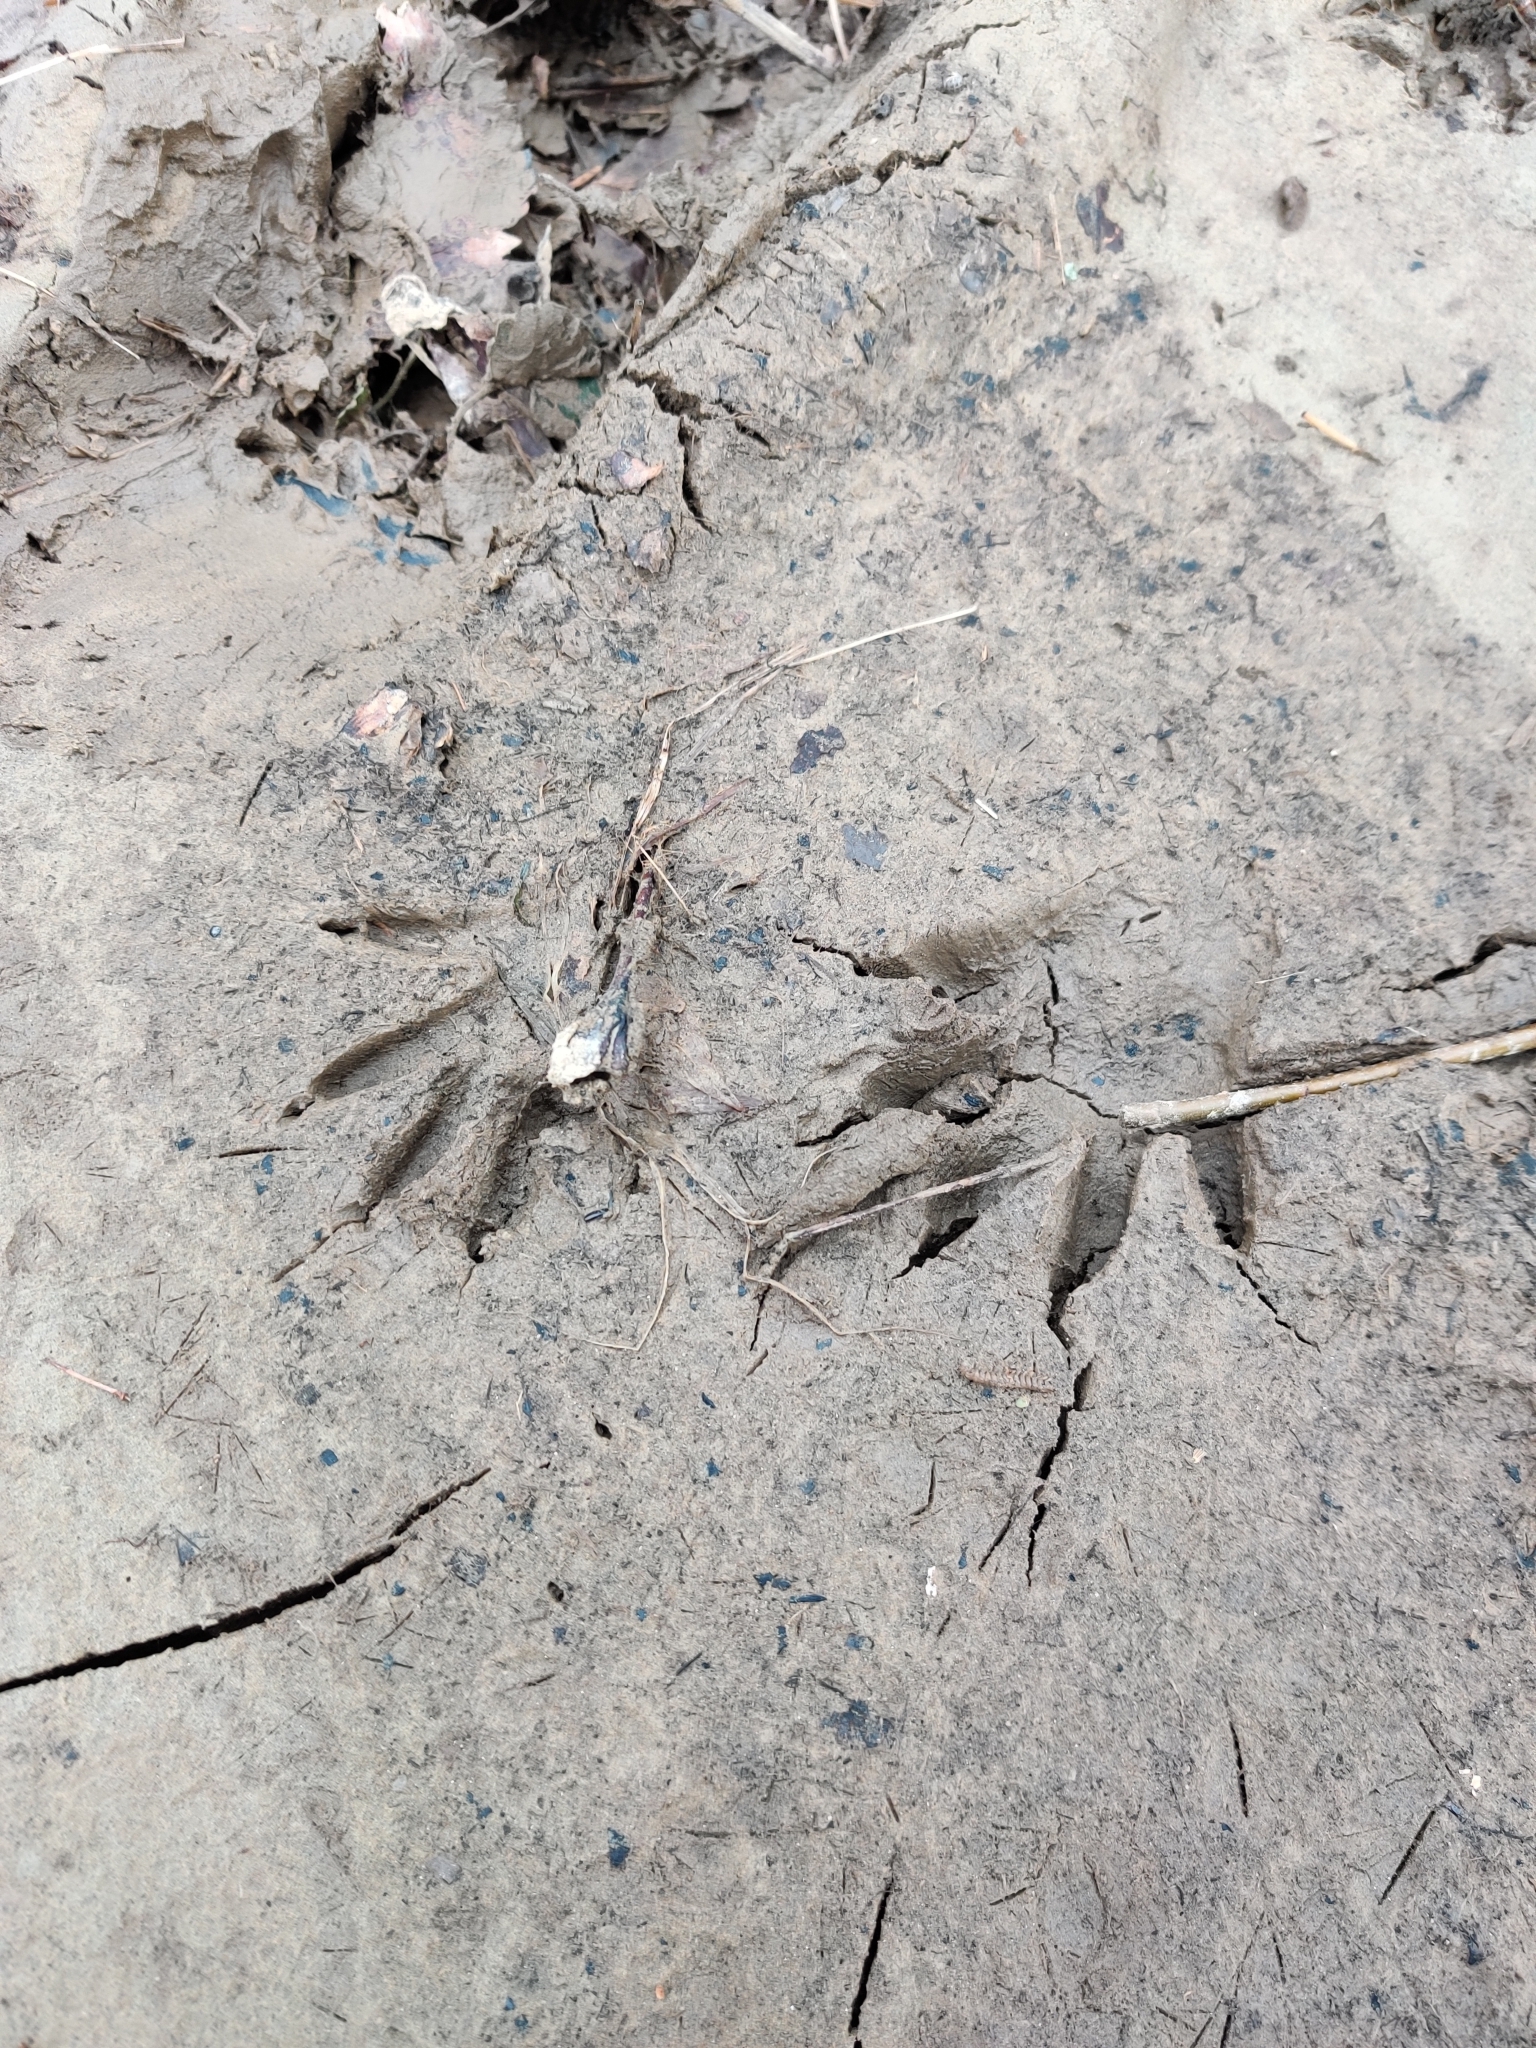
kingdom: Animalia
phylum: Chordata
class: Mammalia
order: Carnivora
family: Procyonidae
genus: Procyon
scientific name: Procyon lotor
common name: Raccoon
